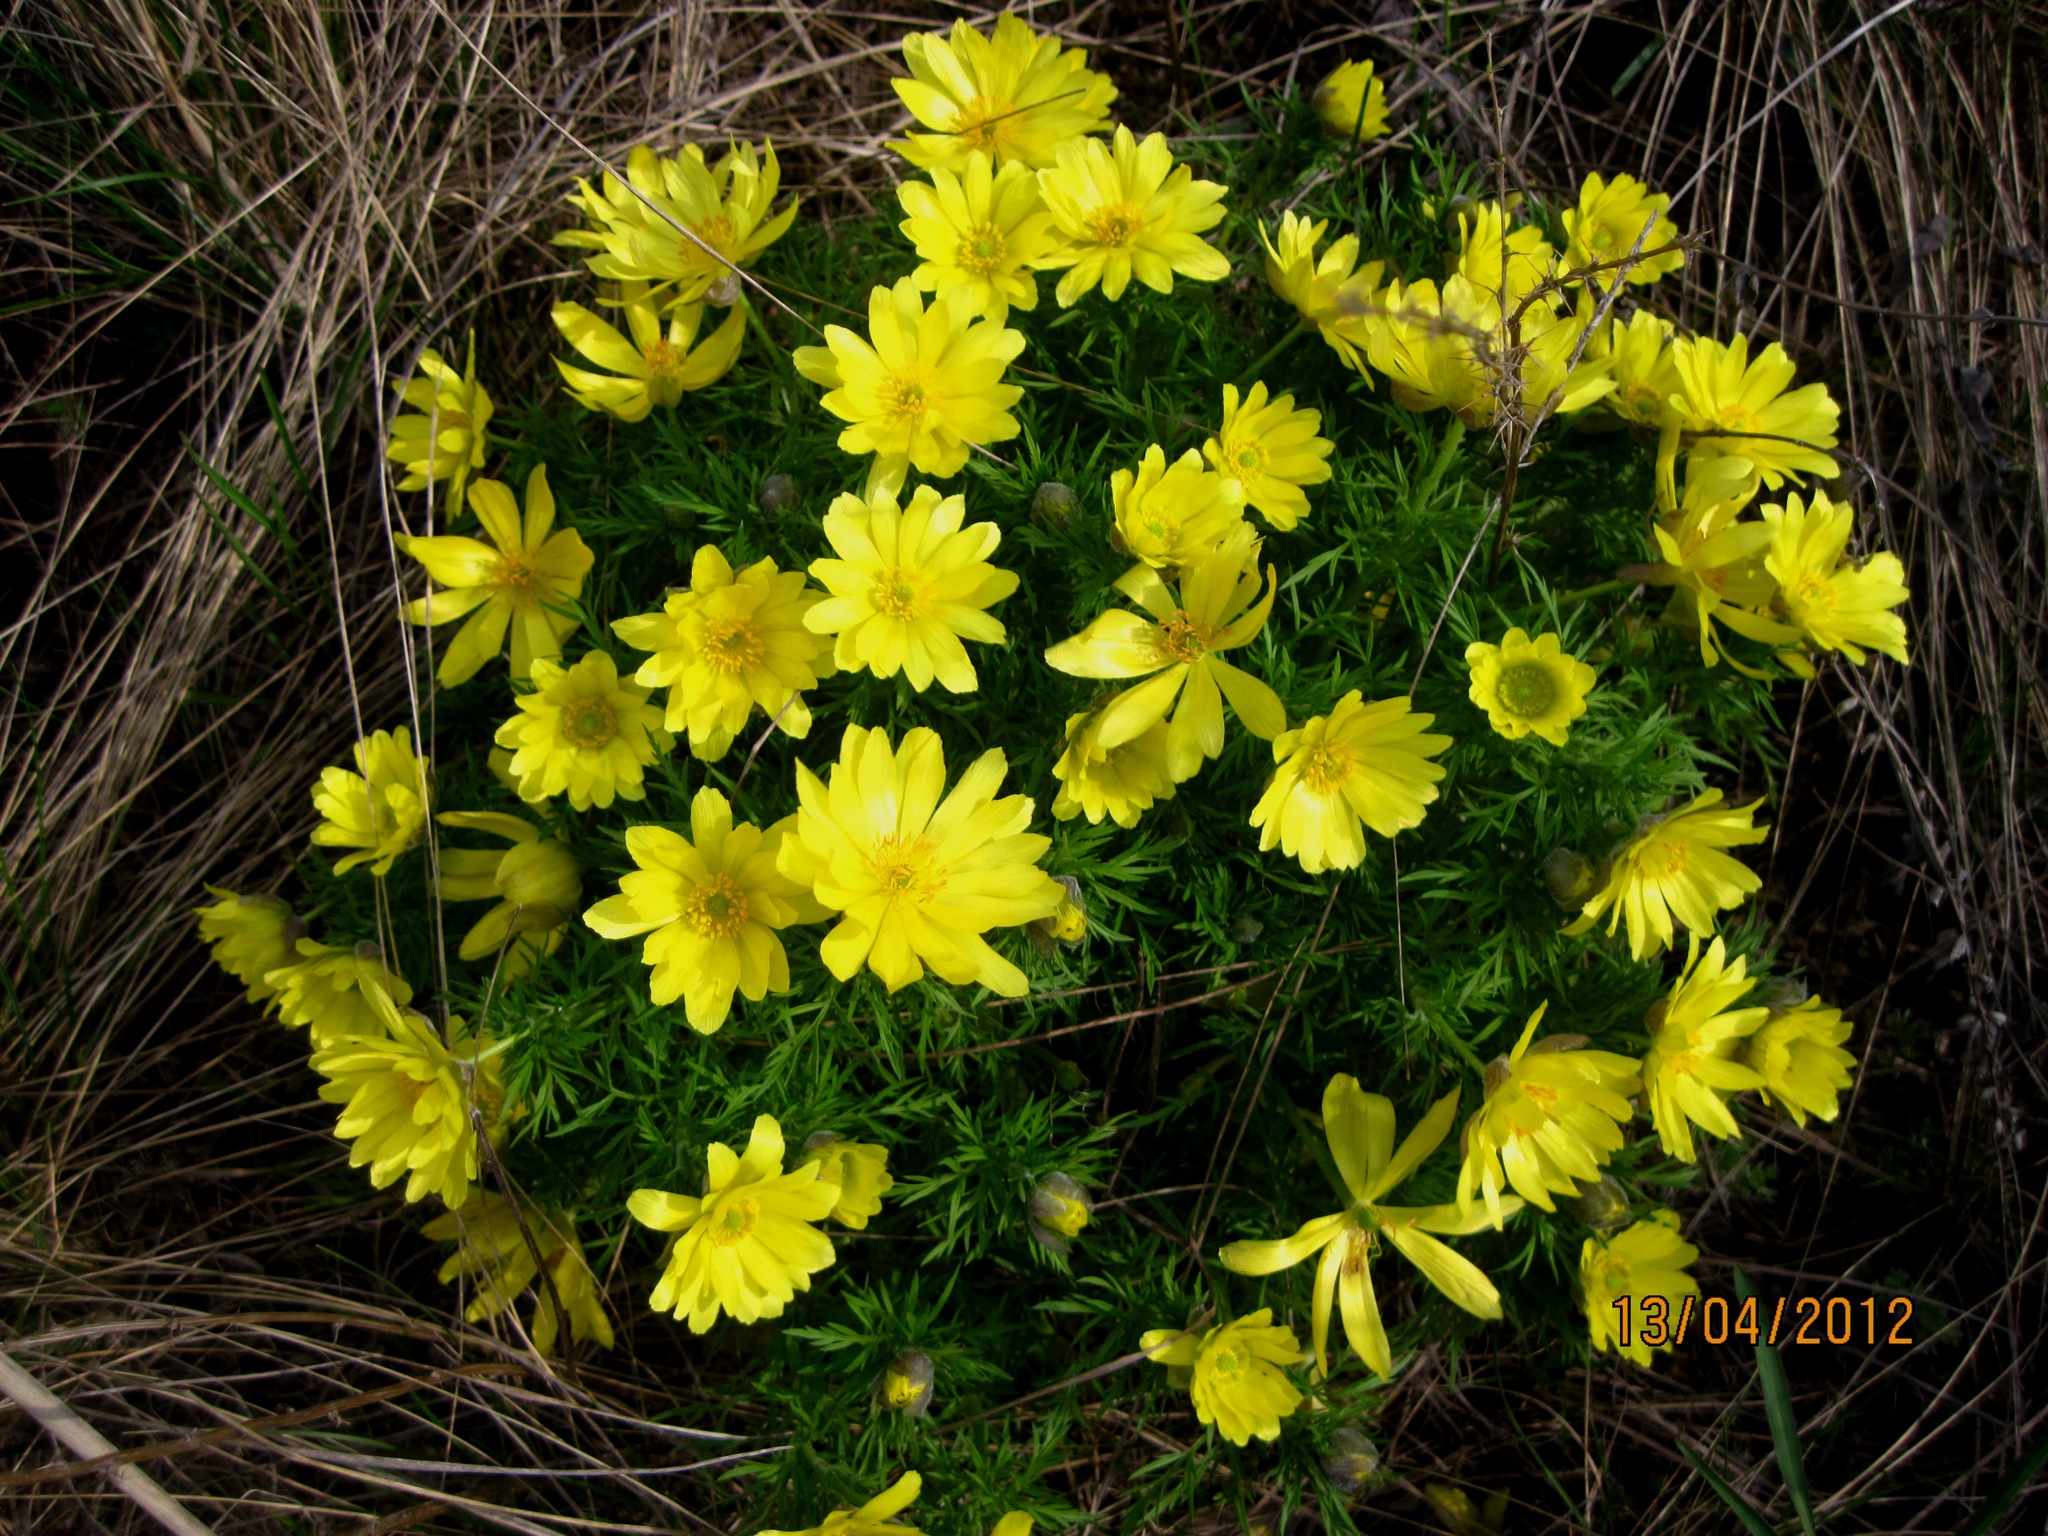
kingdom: Plantae
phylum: Tracheophyta
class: Magnoliopsida
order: Ranunculales
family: Ranunculaceae
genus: Adonis
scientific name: Adonis vernalis
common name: Yellow pheasants-eye
